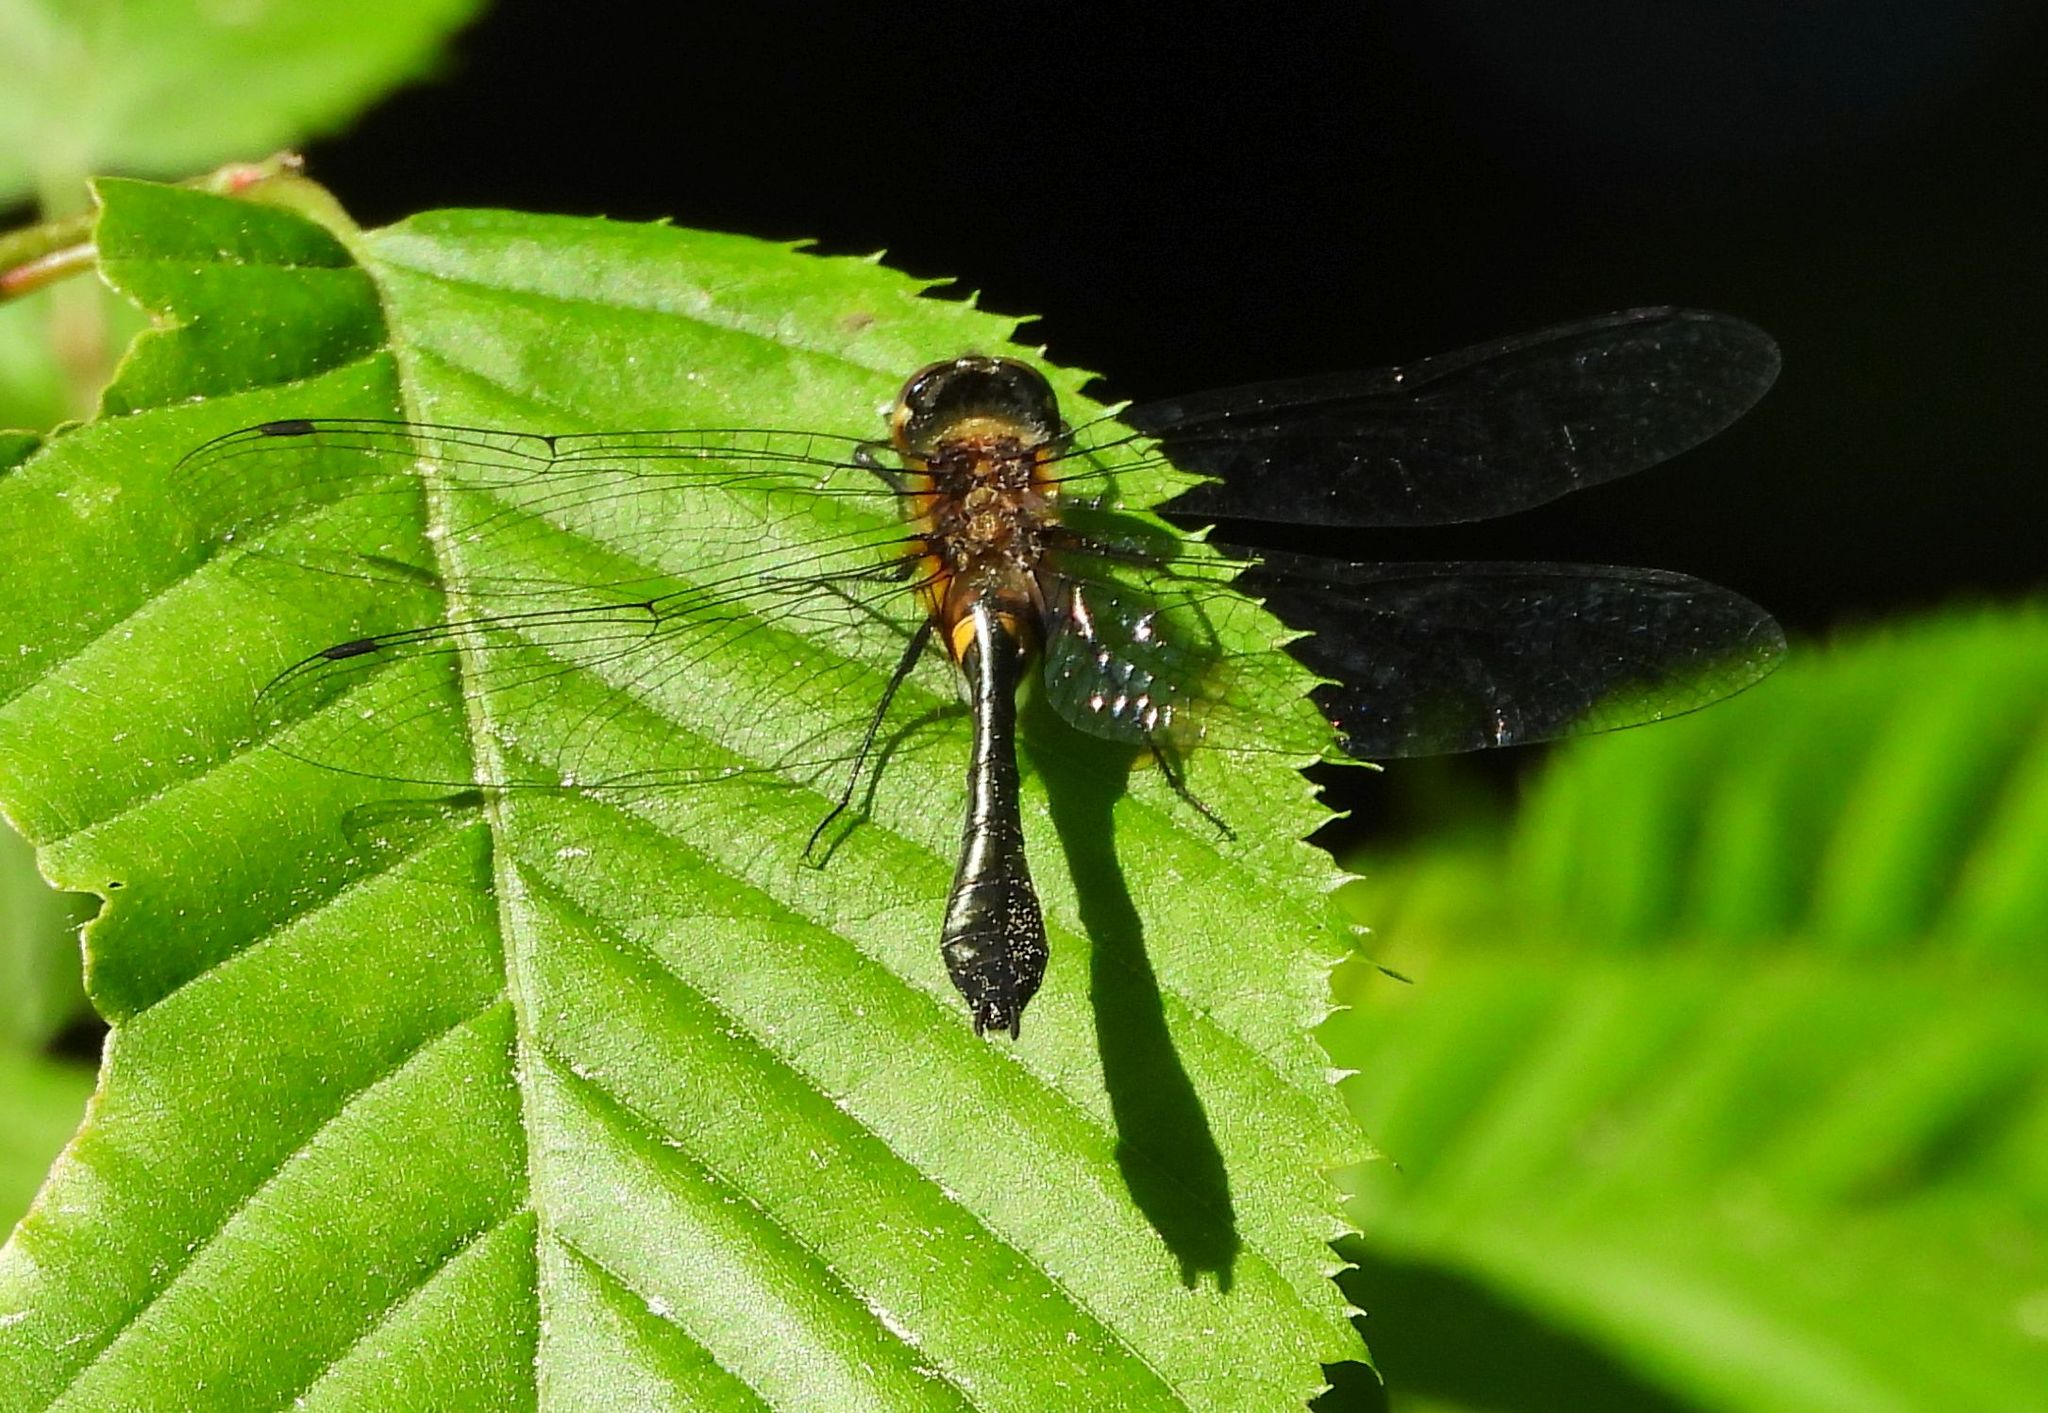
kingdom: Animalia
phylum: Arthropoda
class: Insecta
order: Odonata
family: Corduliidae
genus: Dorocordulia
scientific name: Dorocordulia libera
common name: Racket-tailed emerald
